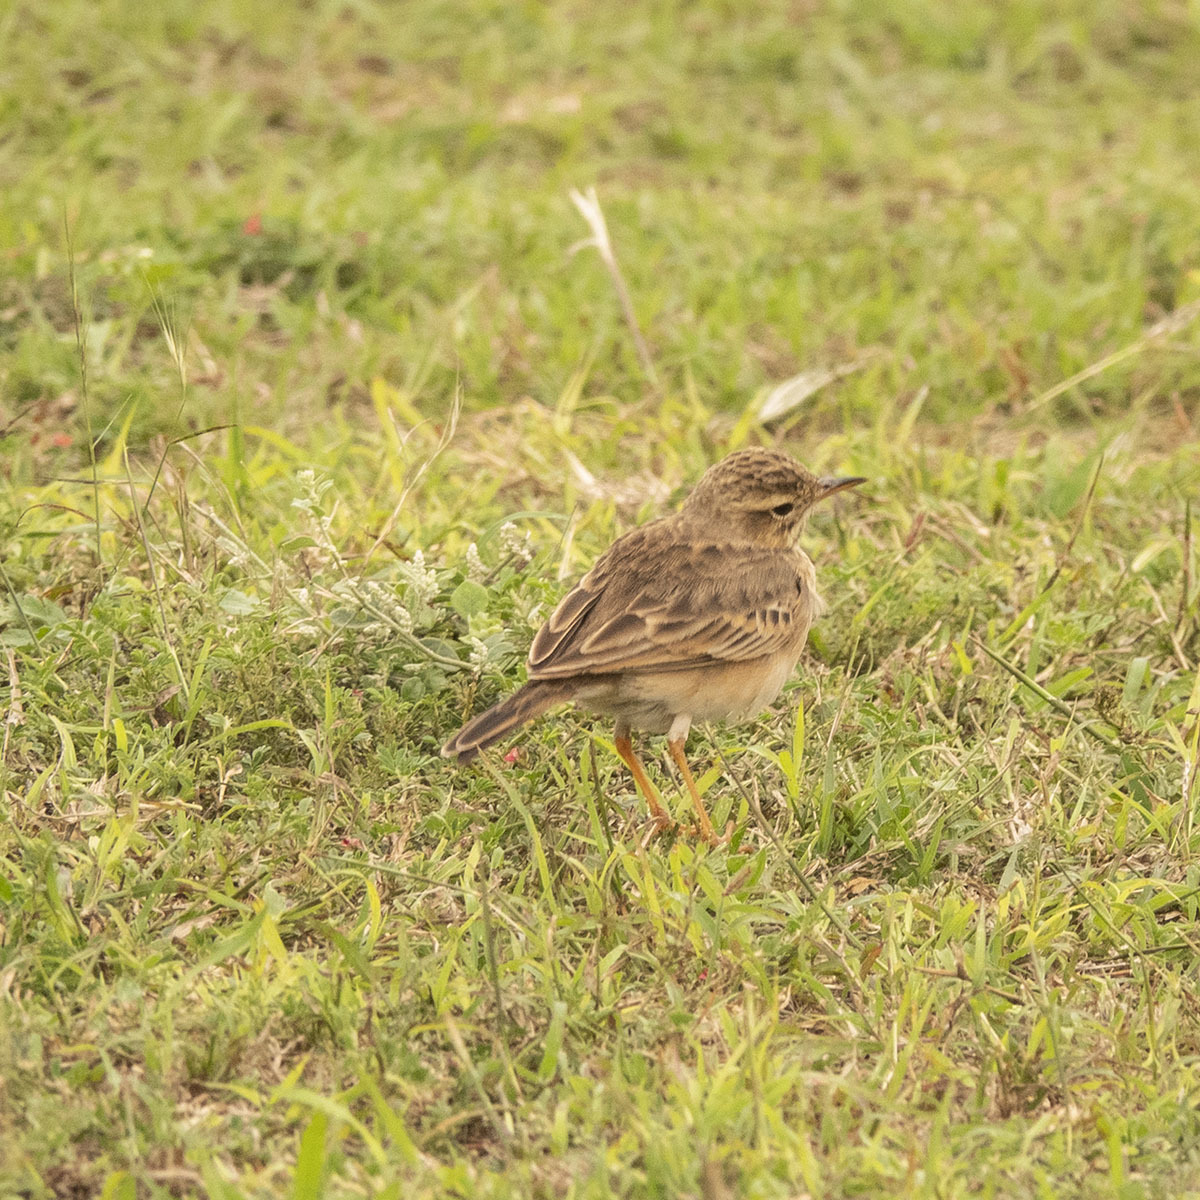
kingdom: Animalia
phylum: Chordata
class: Aves
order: Passeriformes
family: Motacillidae
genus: Anthus
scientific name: Anthus rufulus
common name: Paddyfield pipit
